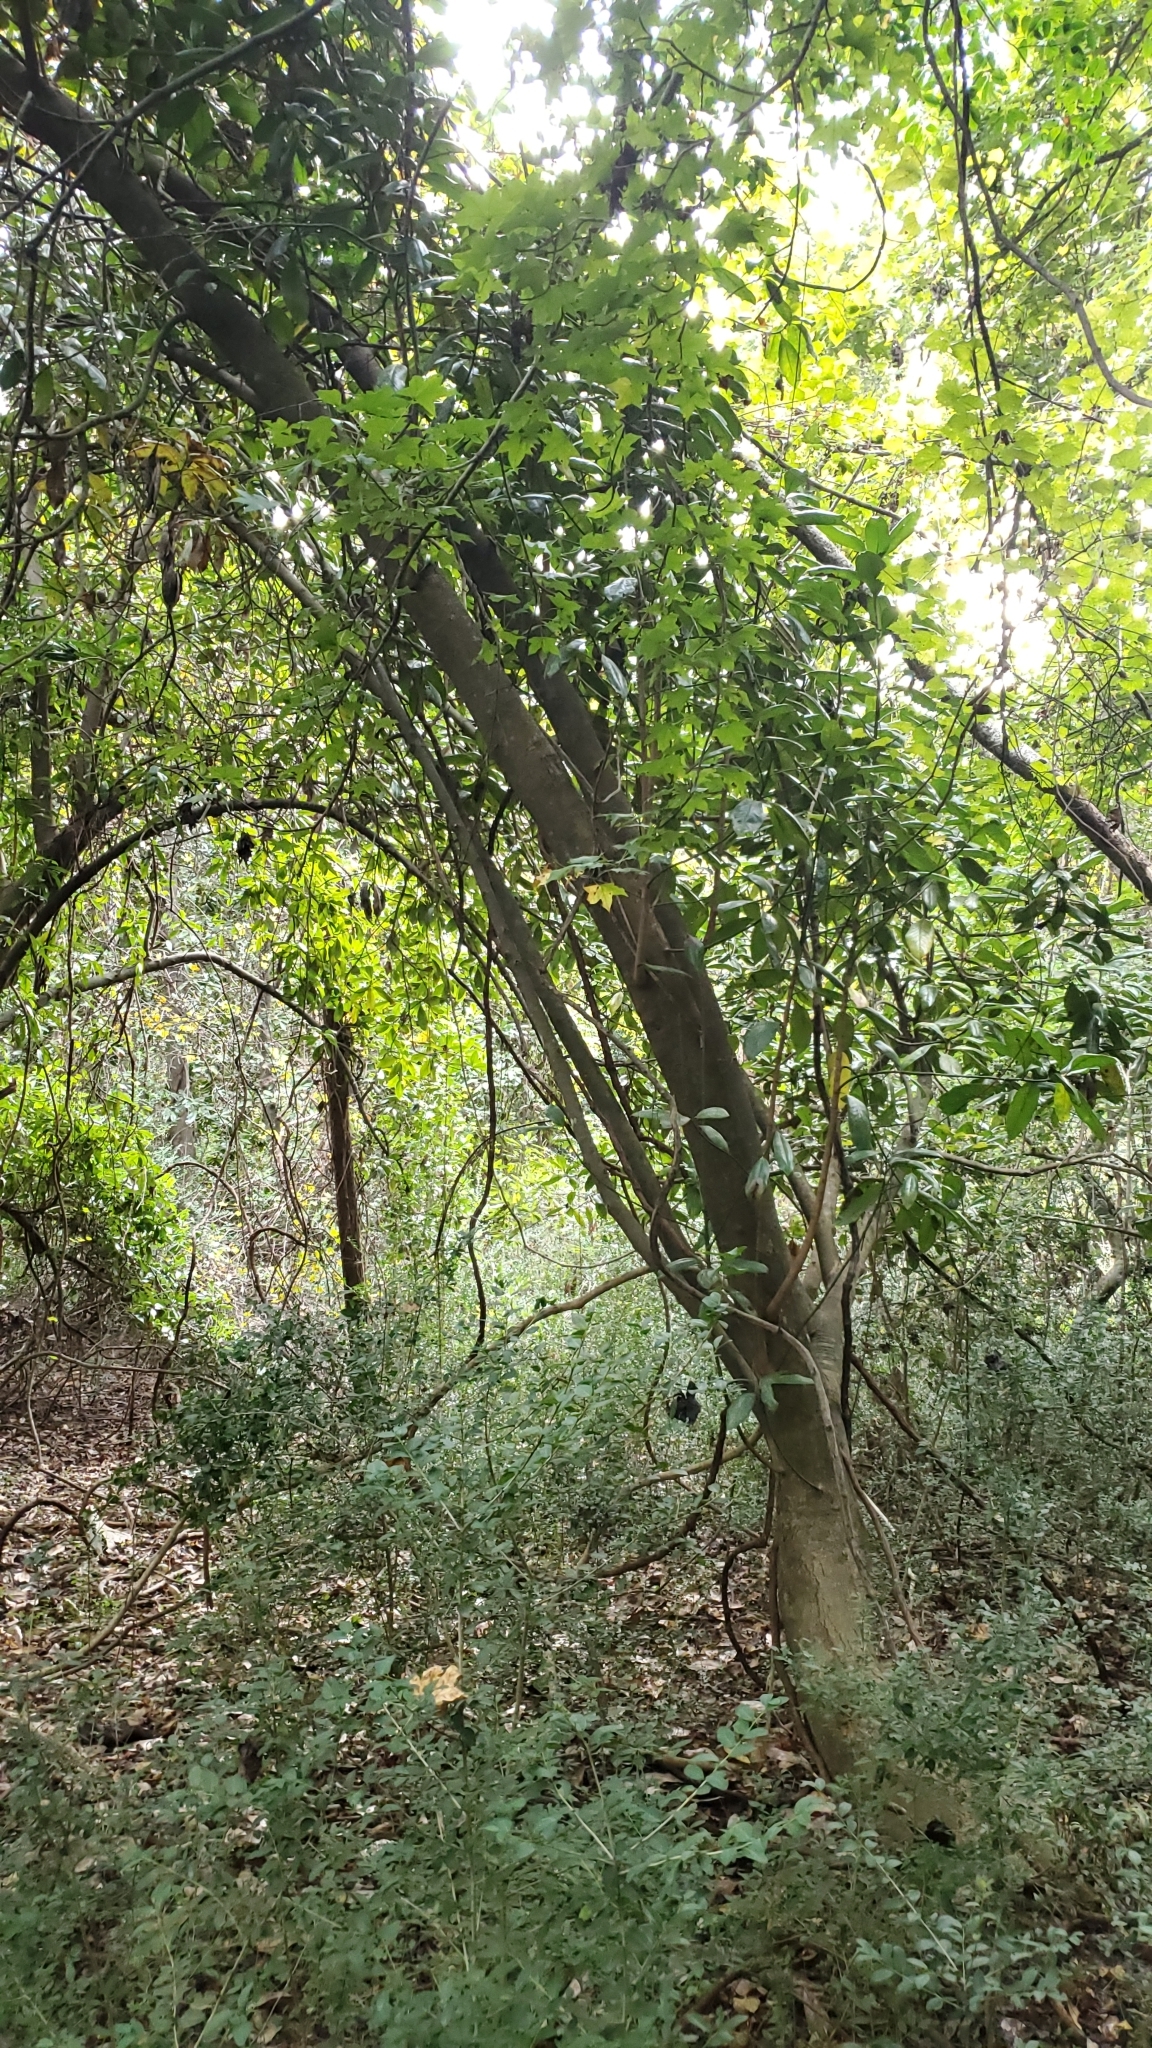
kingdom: Plantae
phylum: Tracheophyta
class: Magnoliopsida
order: Magnoliales
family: Magnoliaceae
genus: Magnolia
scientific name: Magnolia grandiflora
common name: Southern magnolia
